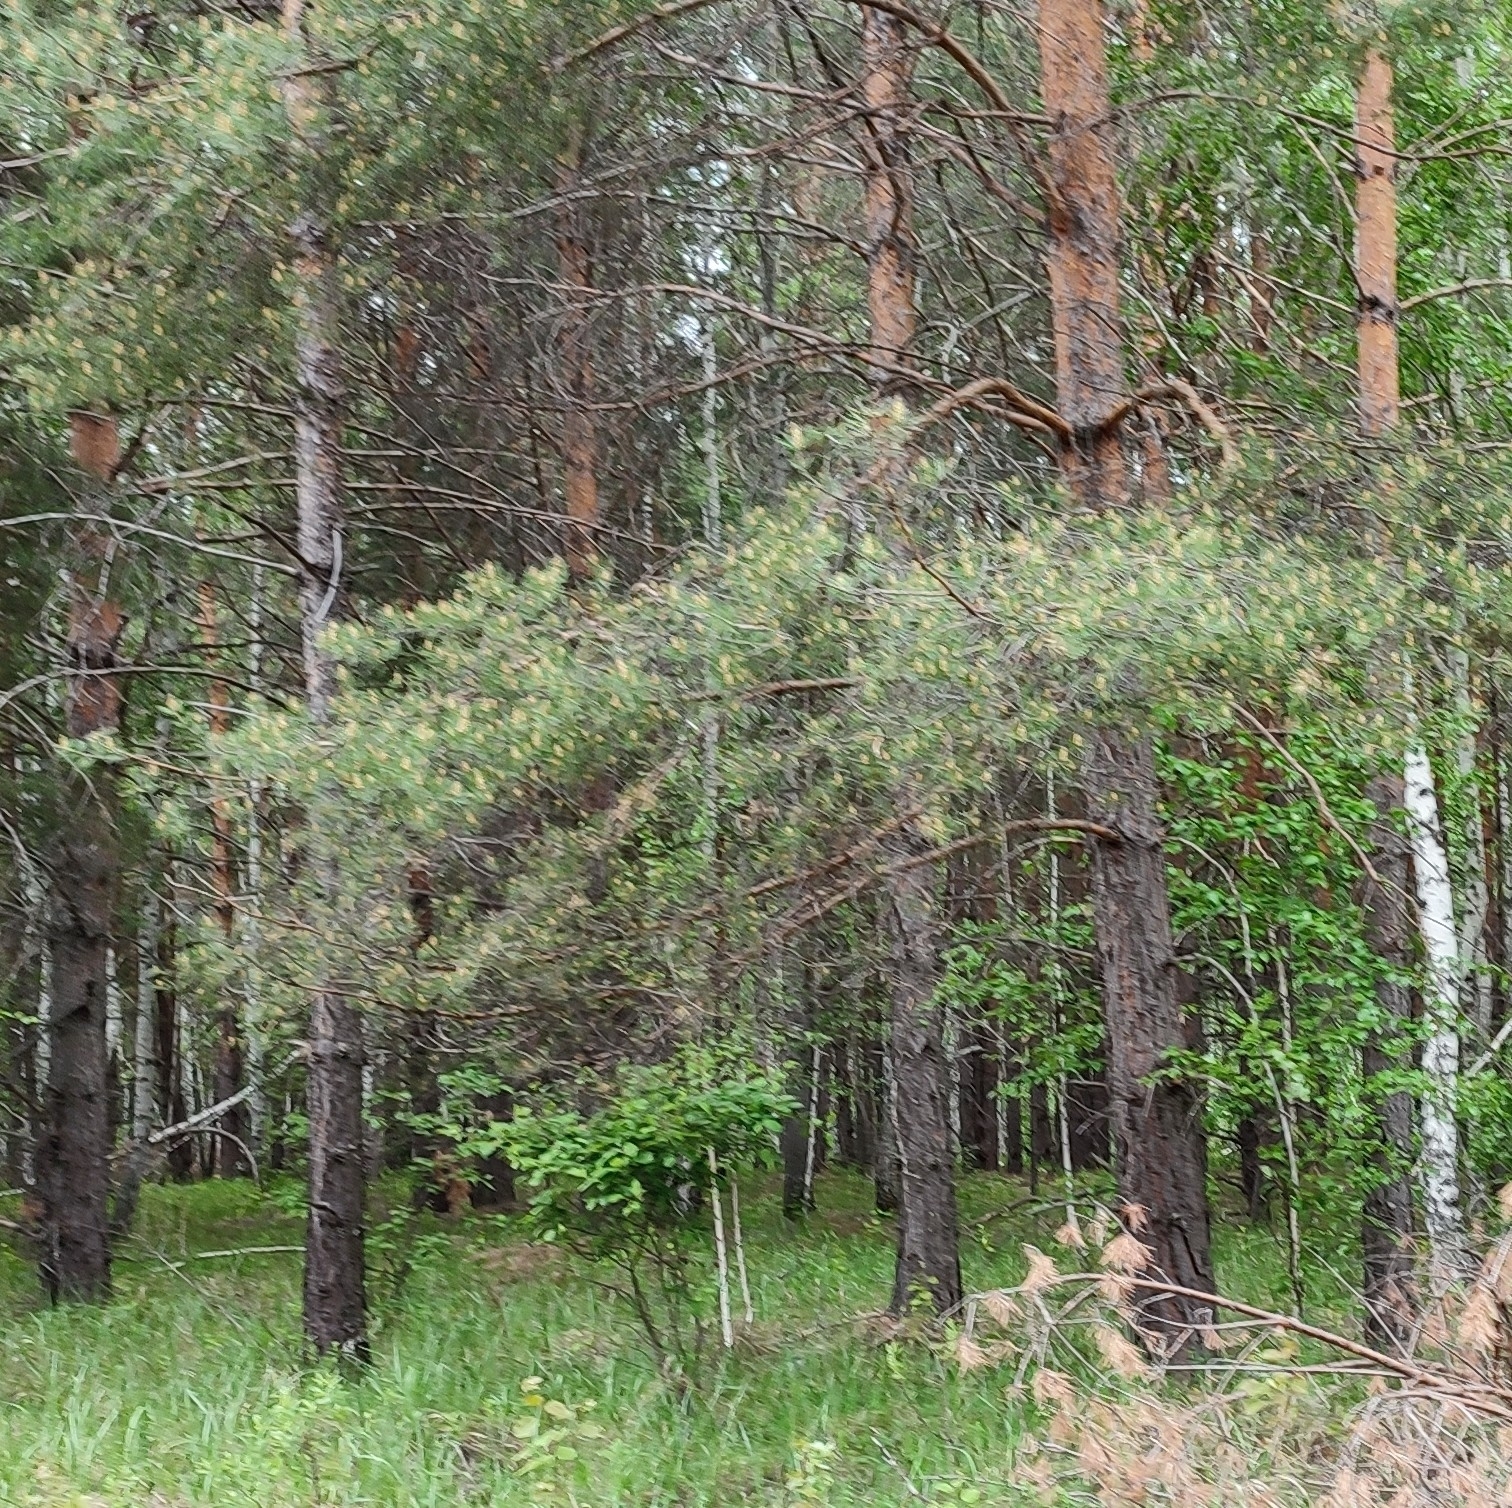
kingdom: Plantae
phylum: Tracheophyta
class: Pinopsida
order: Pinales
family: Pinaceae
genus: Pinus
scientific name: Pinus sylvestris
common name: Scots pine
